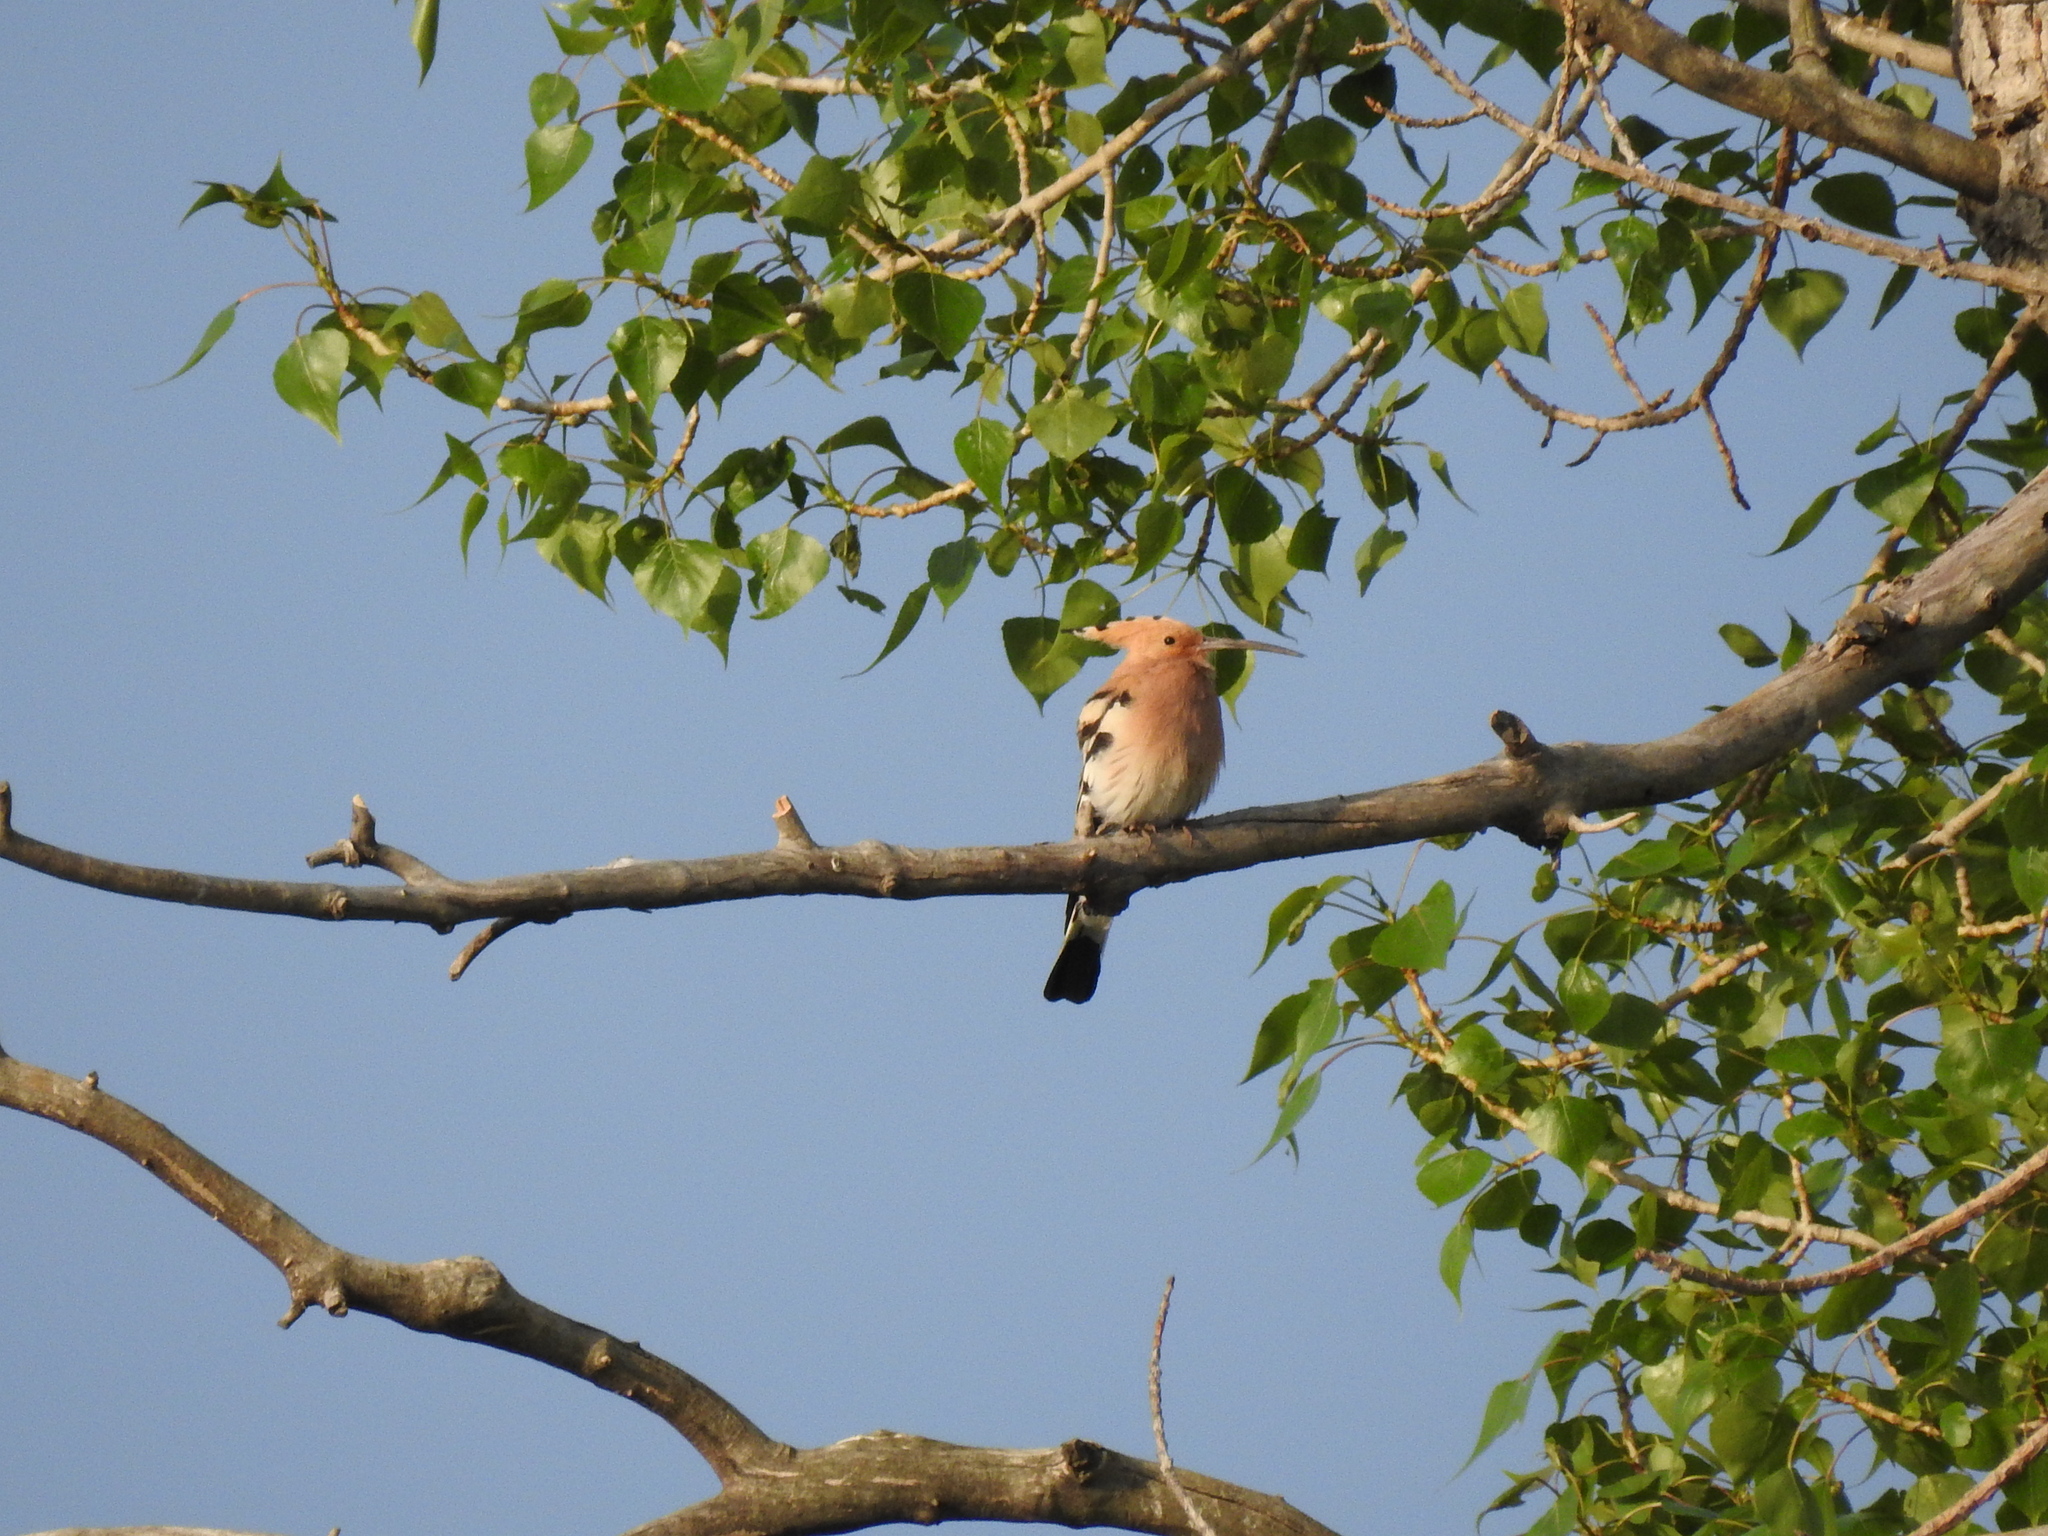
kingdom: Animalia
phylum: Chordata
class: Aves
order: Bucerotiformes
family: Upupidae
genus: Upupa
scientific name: Upupa epops
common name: Eurasian hoopoe
